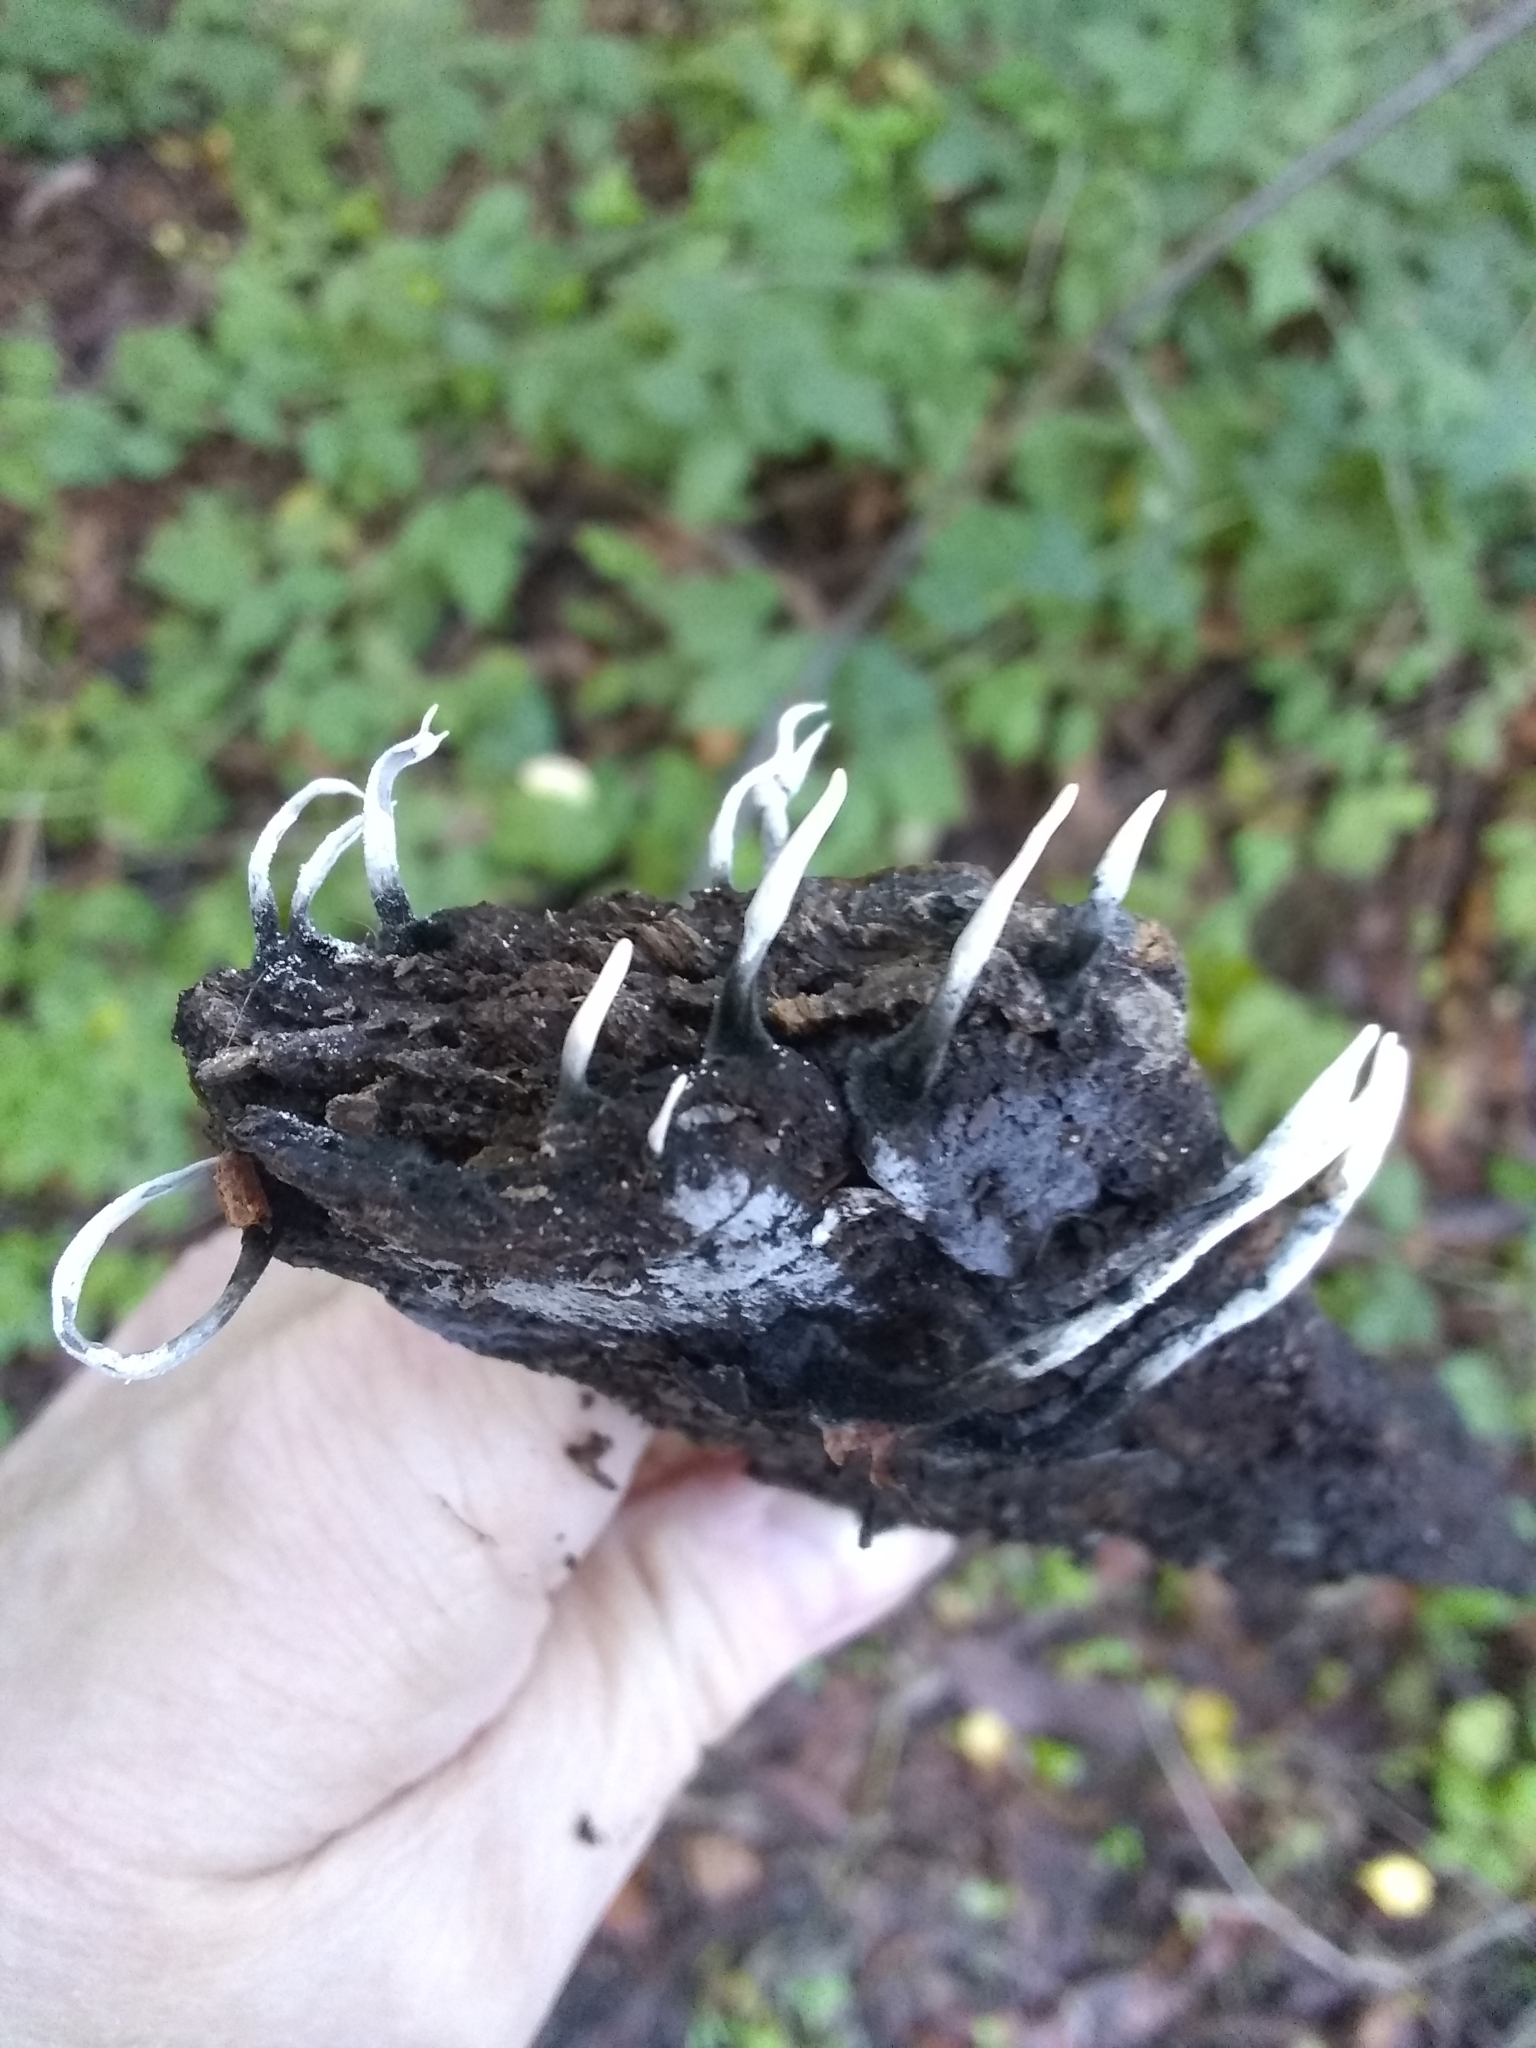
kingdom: Fungi
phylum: Ascomycota
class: Sordariomycetes
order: Xylariales
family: Xylariaceae
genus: Xylaria
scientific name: Xylaria hypoxylon
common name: Candle-snuff fungus
